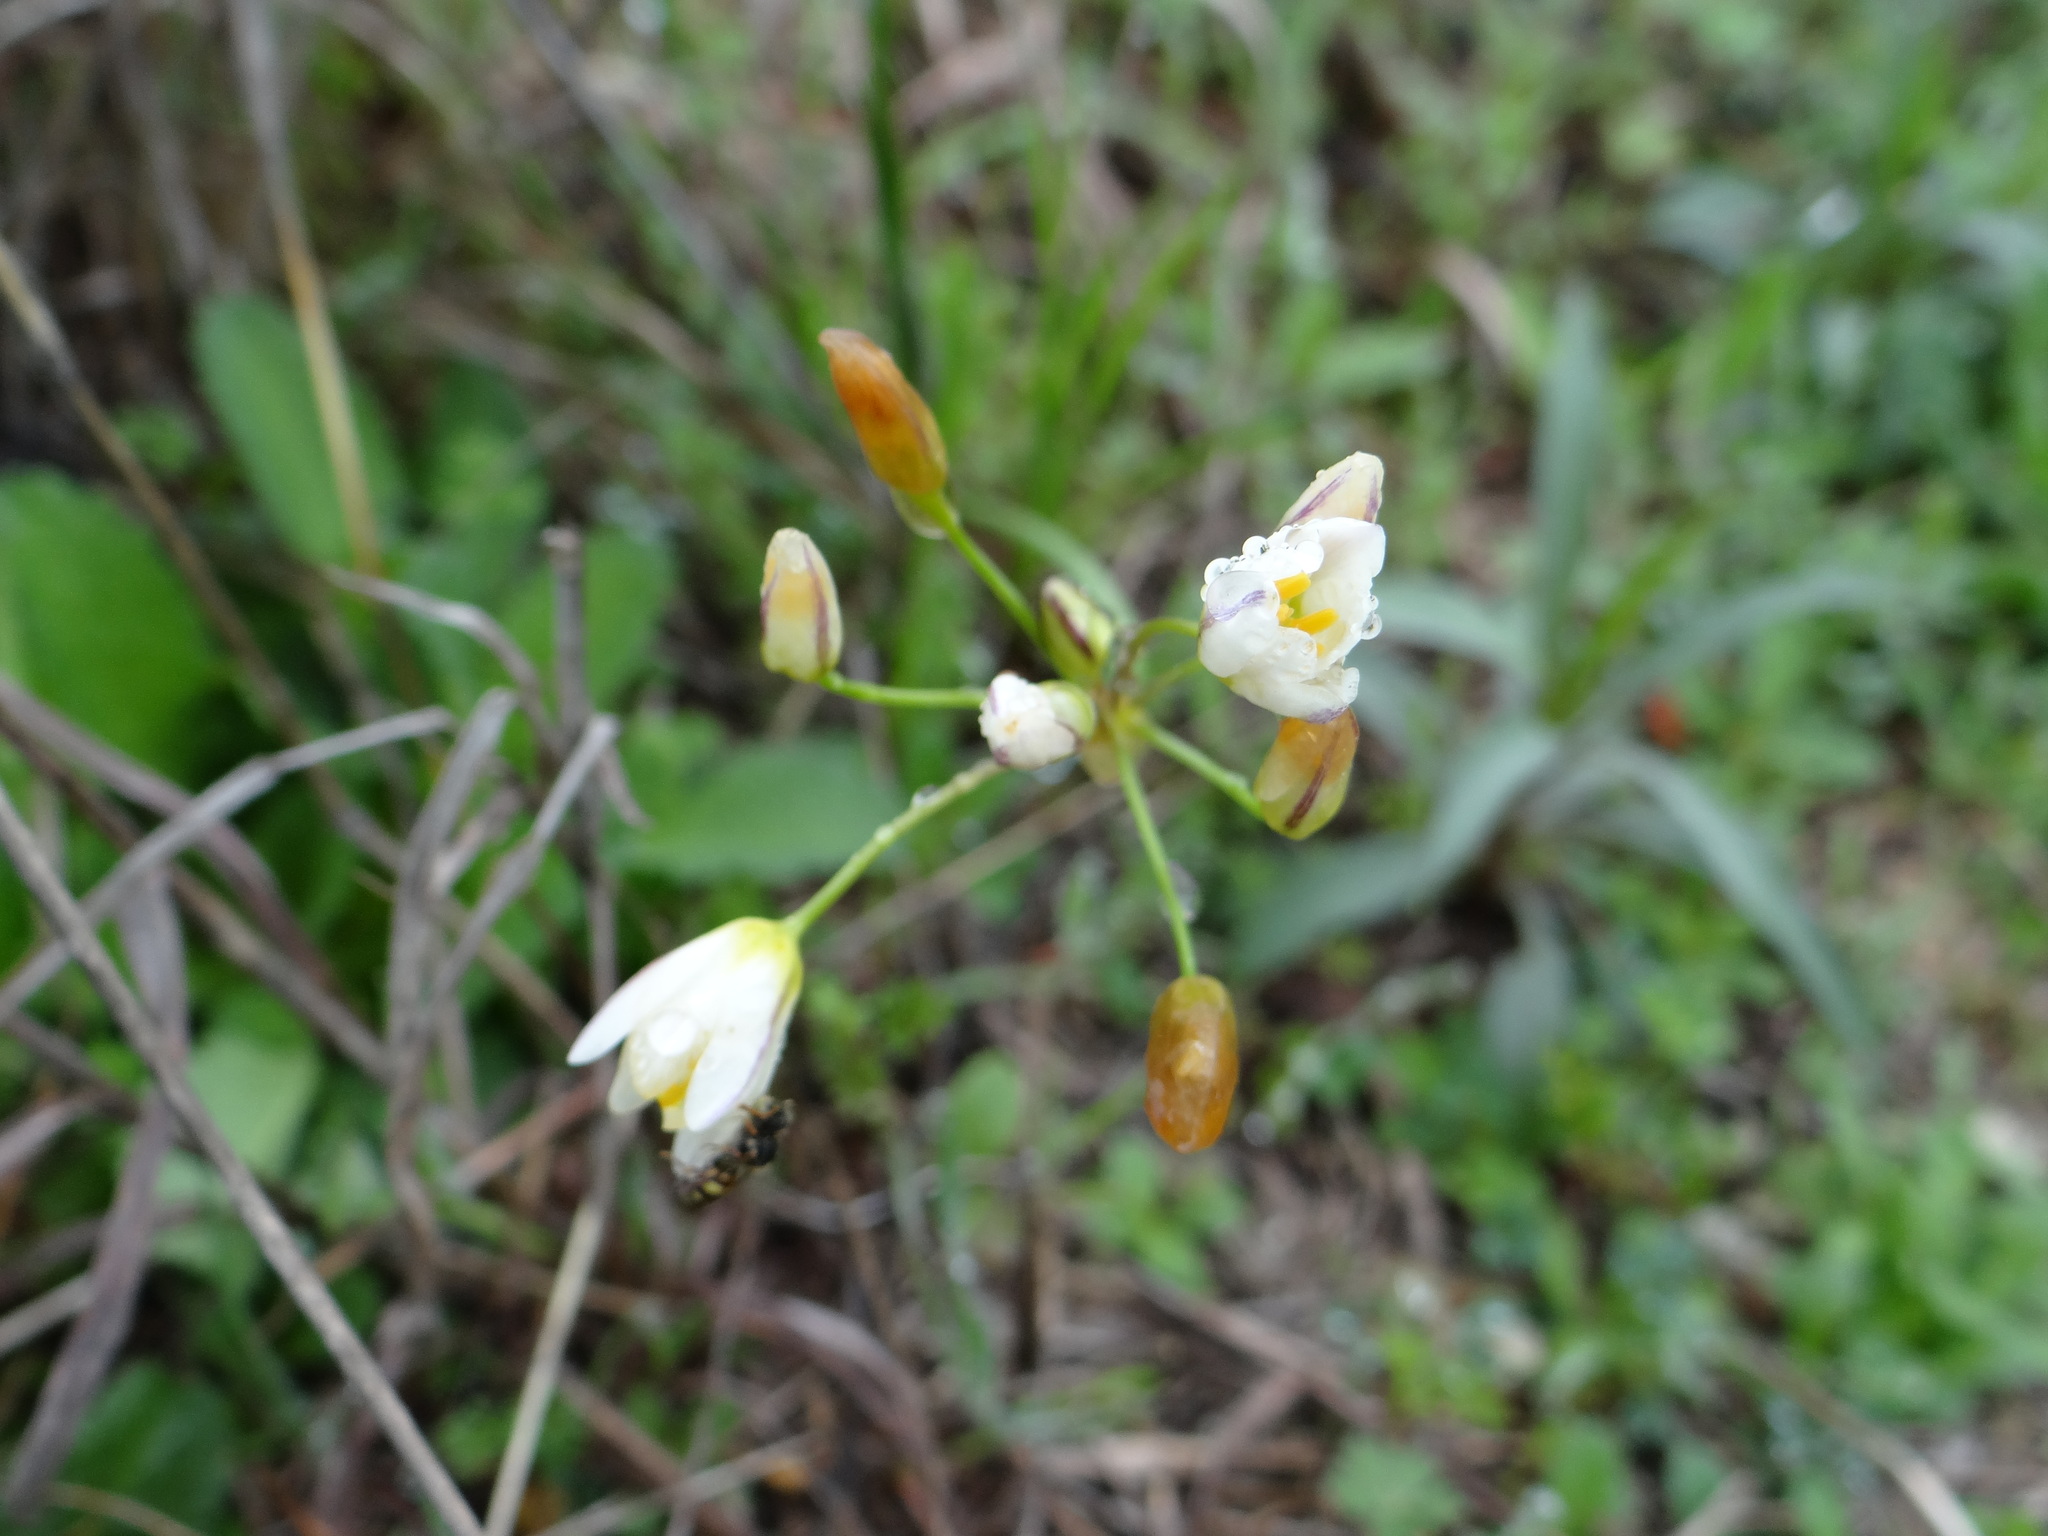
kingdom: Plantae
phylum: Tracheophyta
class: Liliopsida
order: Asparagales
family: Amaryllidaceae
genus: Nothoscordum
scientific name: Nothoscordum bivalve
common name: Crow-poison
